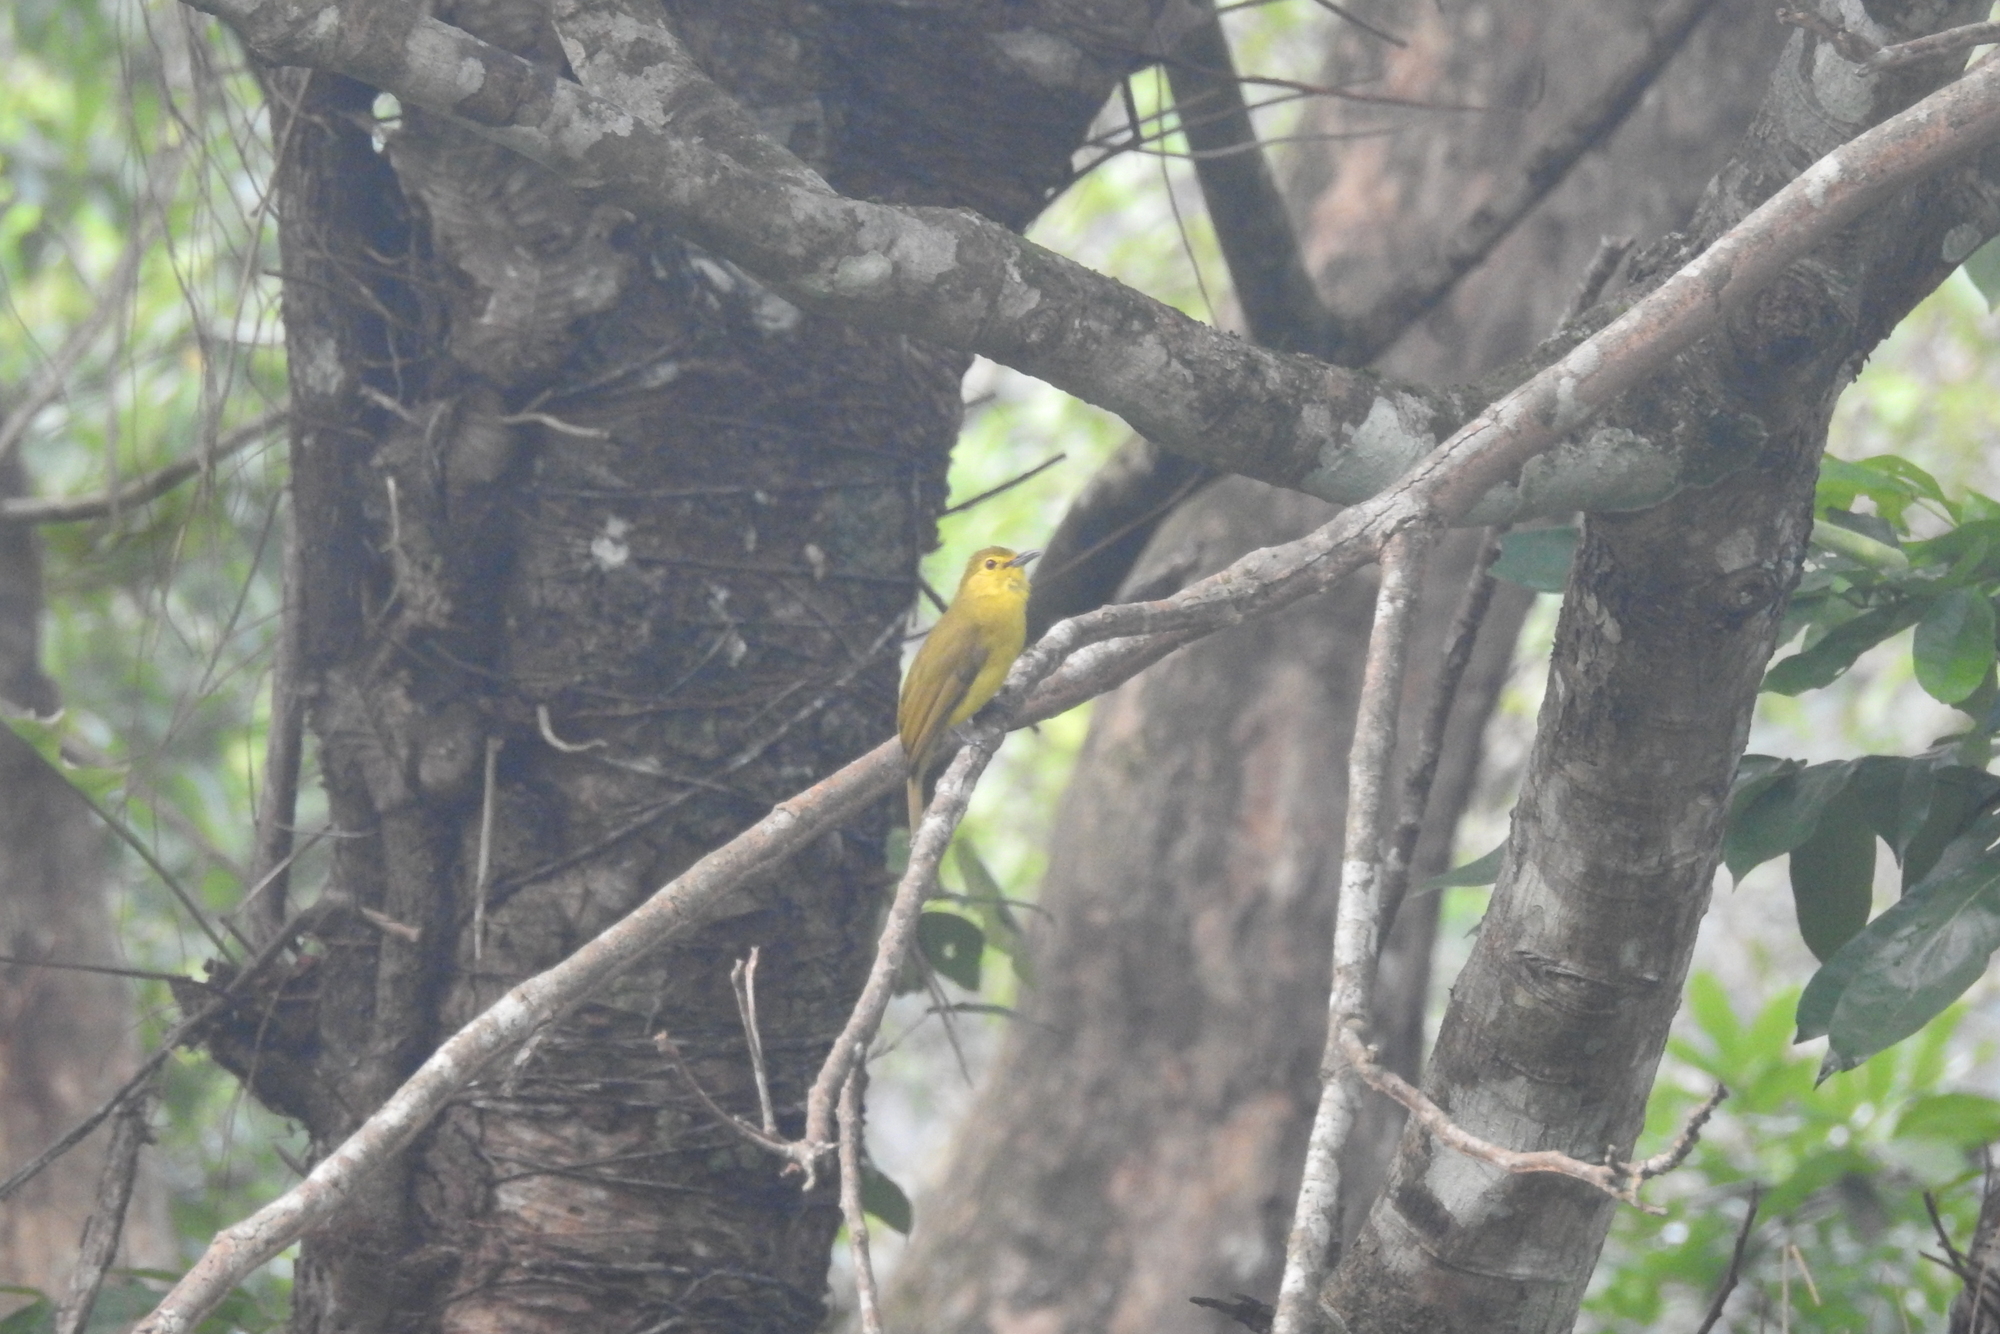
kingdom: Animalia
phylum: Chordata
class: Aves
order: Passeriformes
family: Pycnonotidae
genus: Acritillas
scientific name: Acritillas indica
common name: Yellow-browed bulbul
